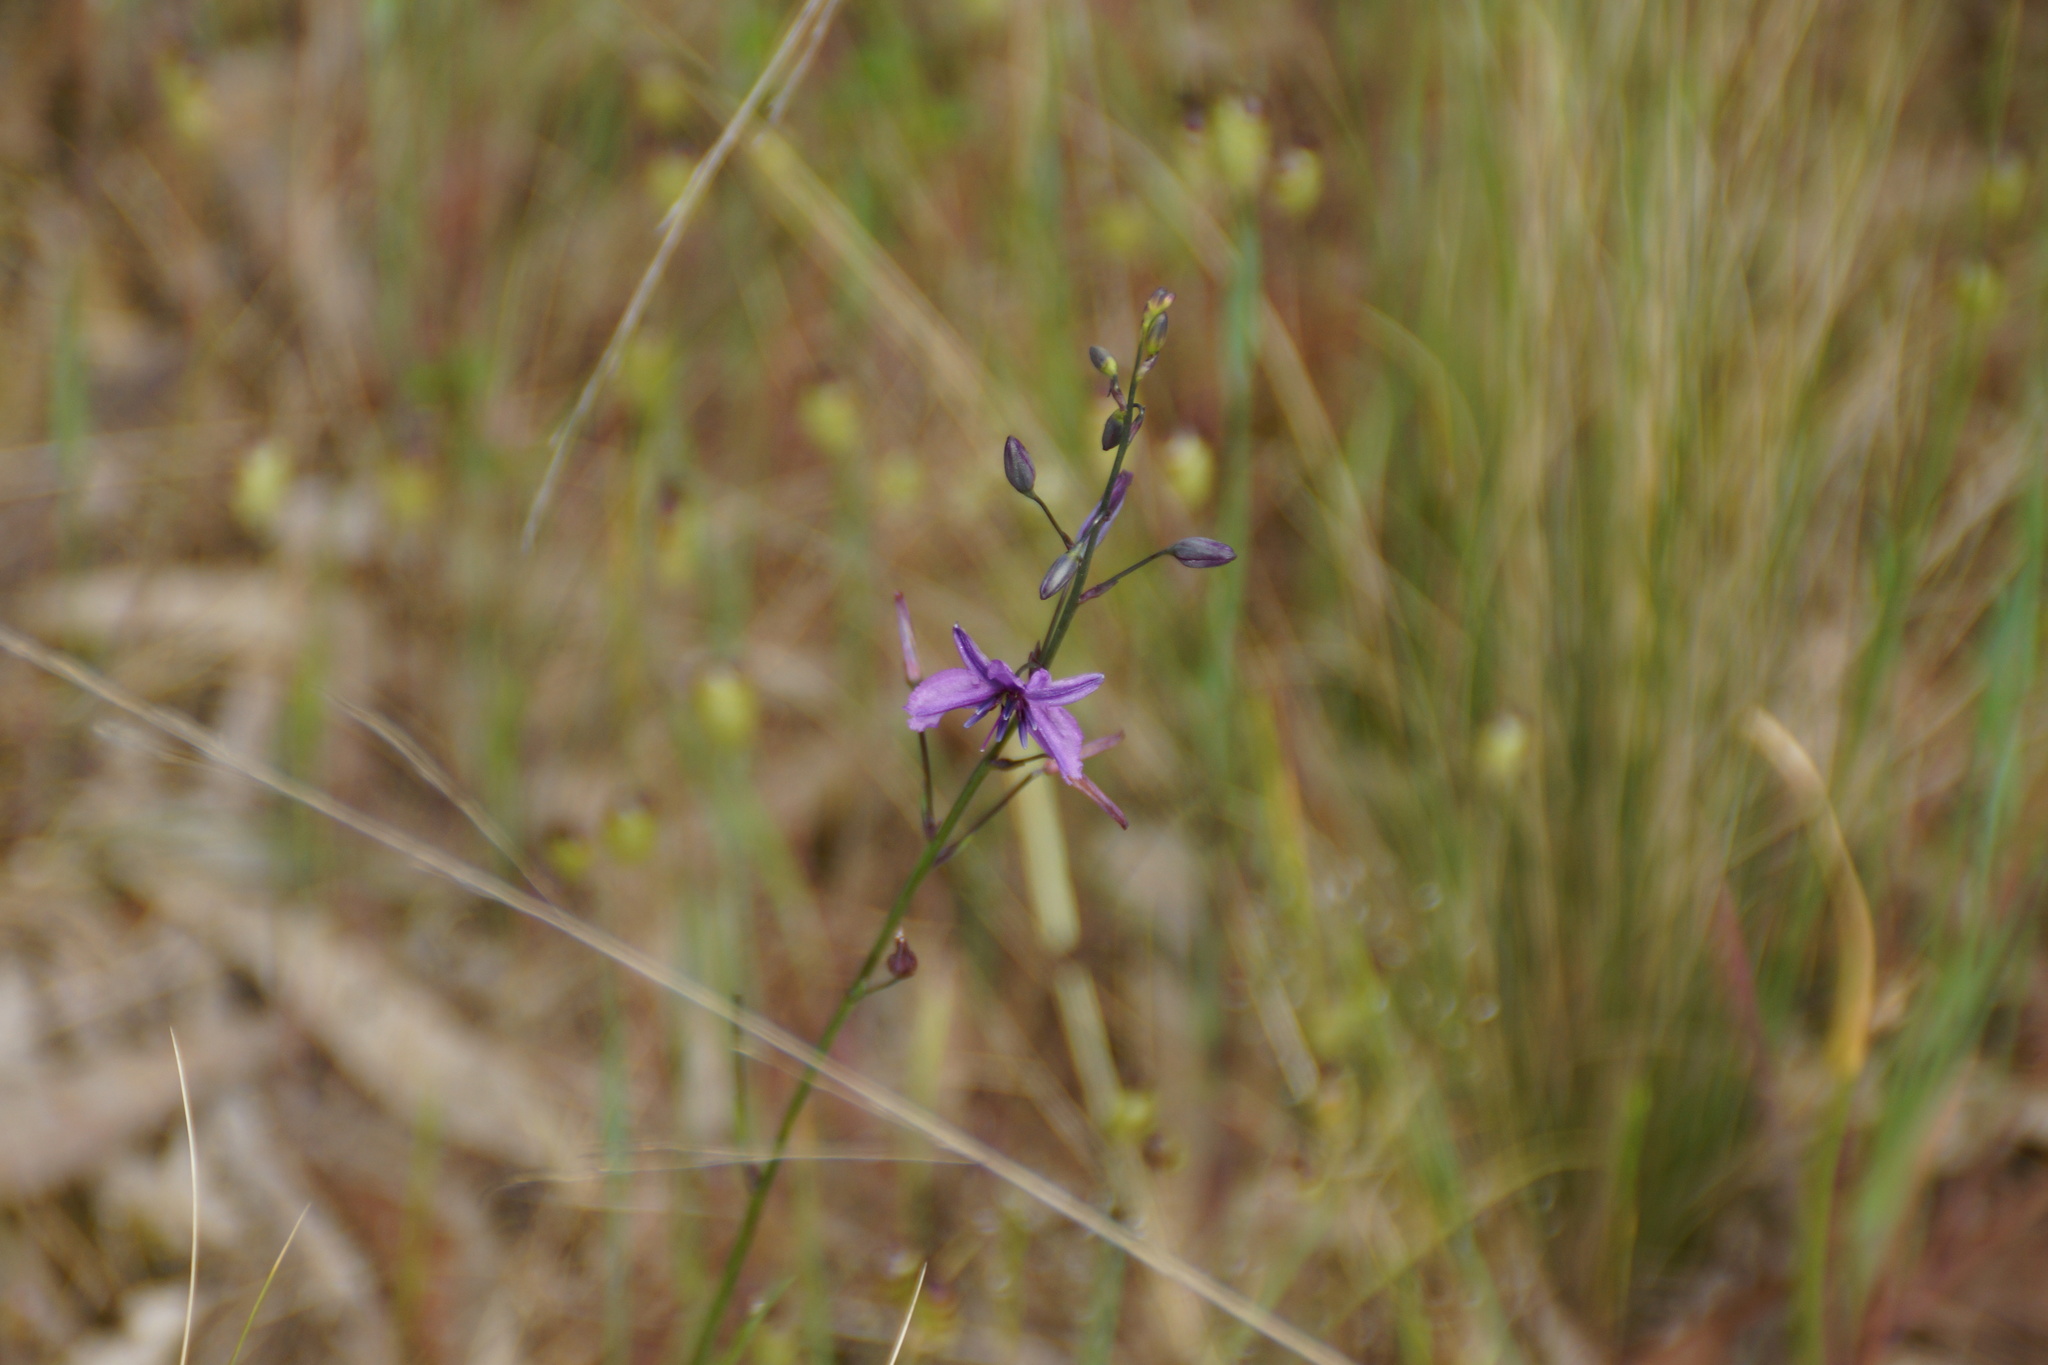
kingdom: Plantae
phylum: Tracheophyta
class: Liliopsida
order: Asparagales
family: Asparagaceae
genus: Arthropodium
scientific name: Arthropodium strictum
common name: Chocolate-lily
